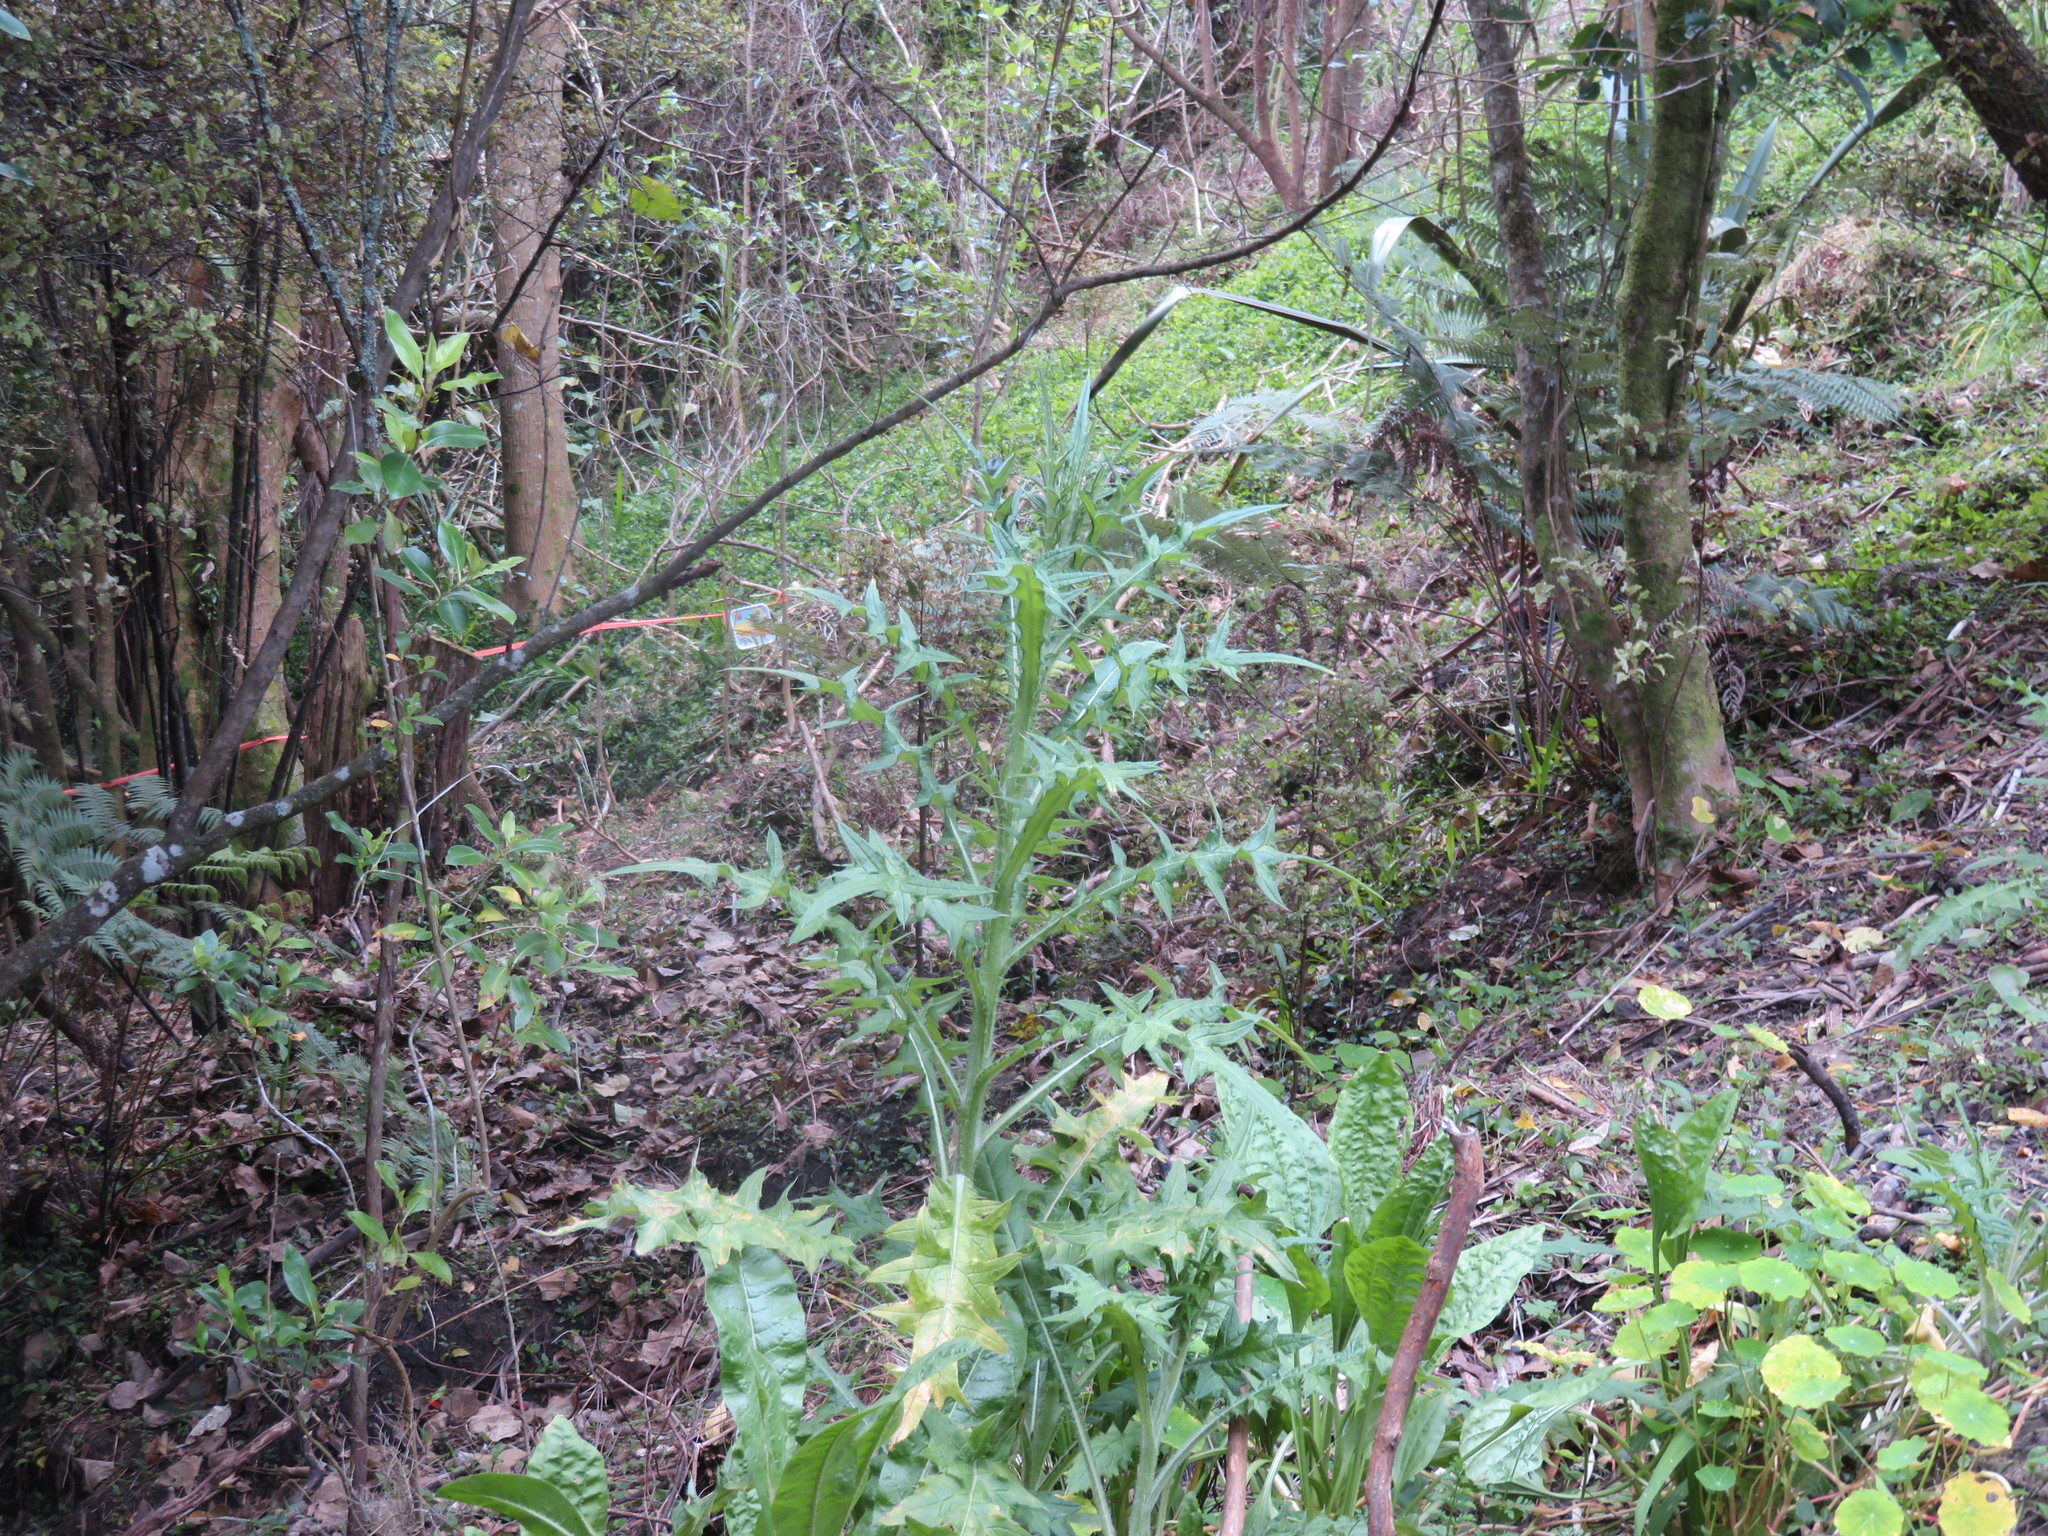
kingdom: Plantae
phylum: Tracheophyta
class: Magnoliopsida
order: Asterales
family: Asteraceae
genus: Cirsium
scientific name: Cirsium vulgare
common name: Bull thistle
